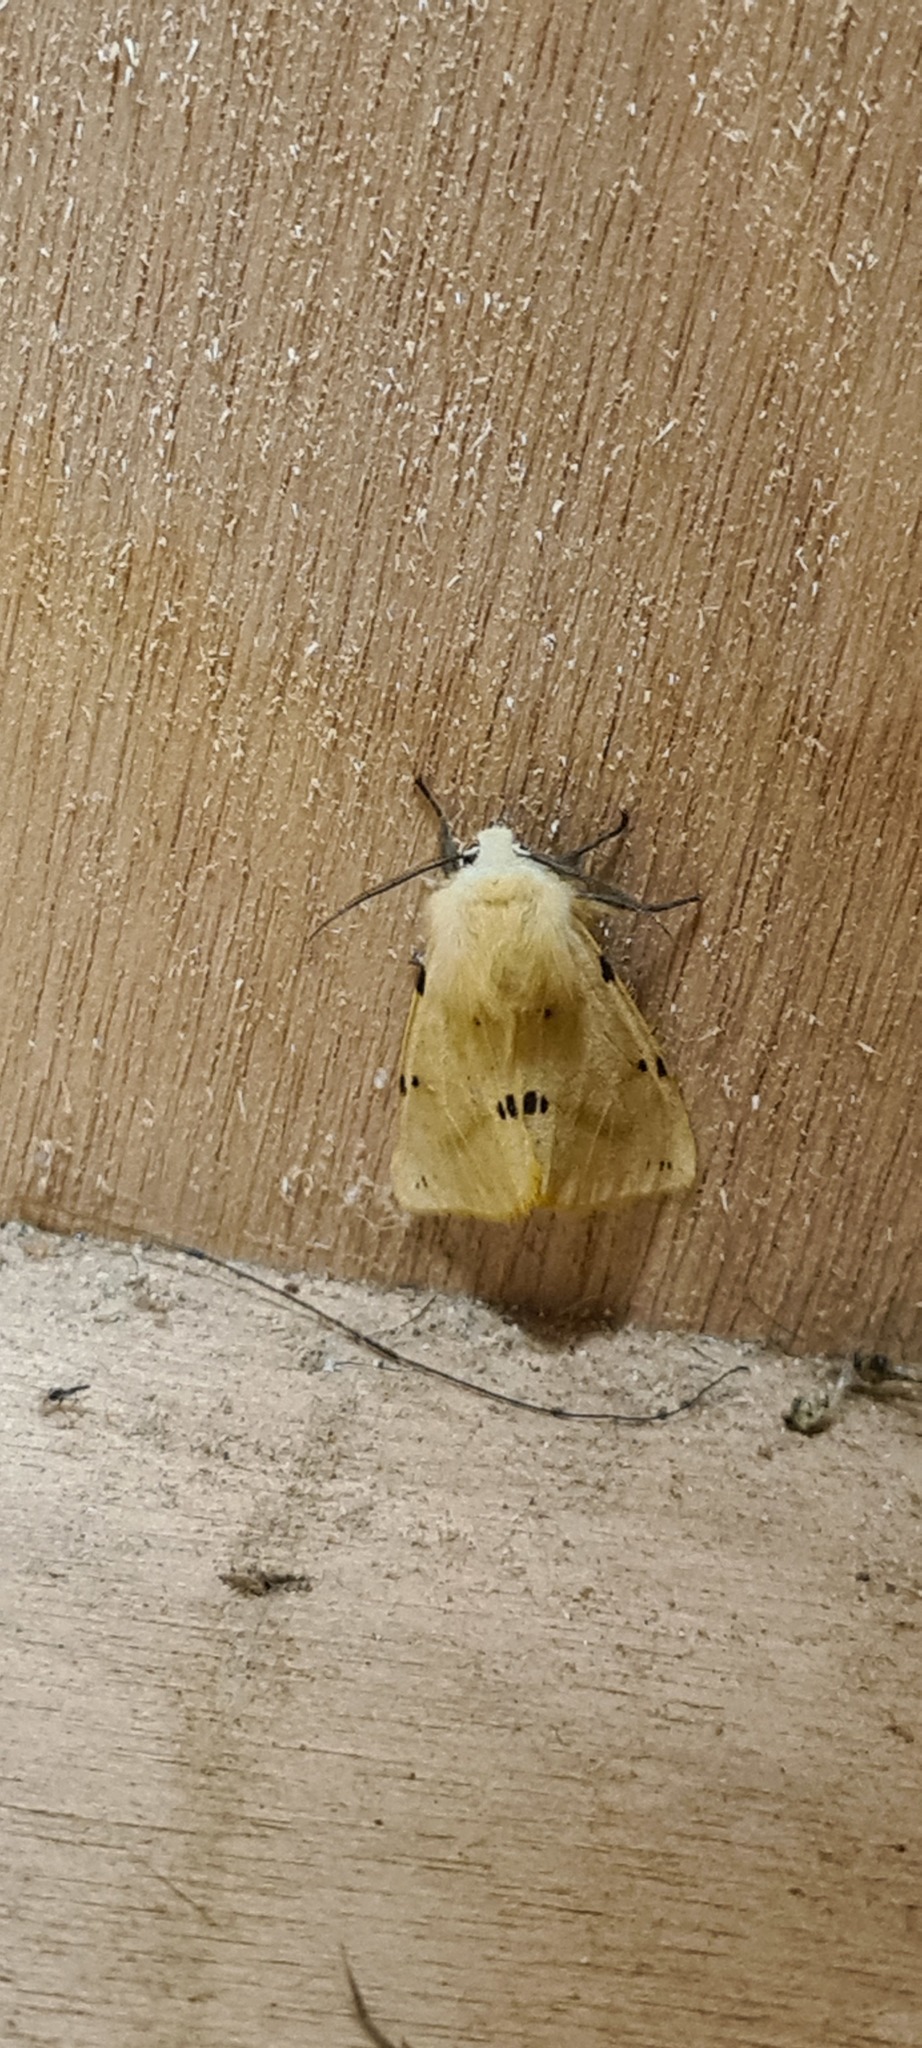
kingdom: Animalia
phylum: Arthropoda
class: Insecta
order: Lepidoptera
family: Erebidae
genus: Spilarctia
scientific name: Spilarctia lutea
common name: Buff ermine
